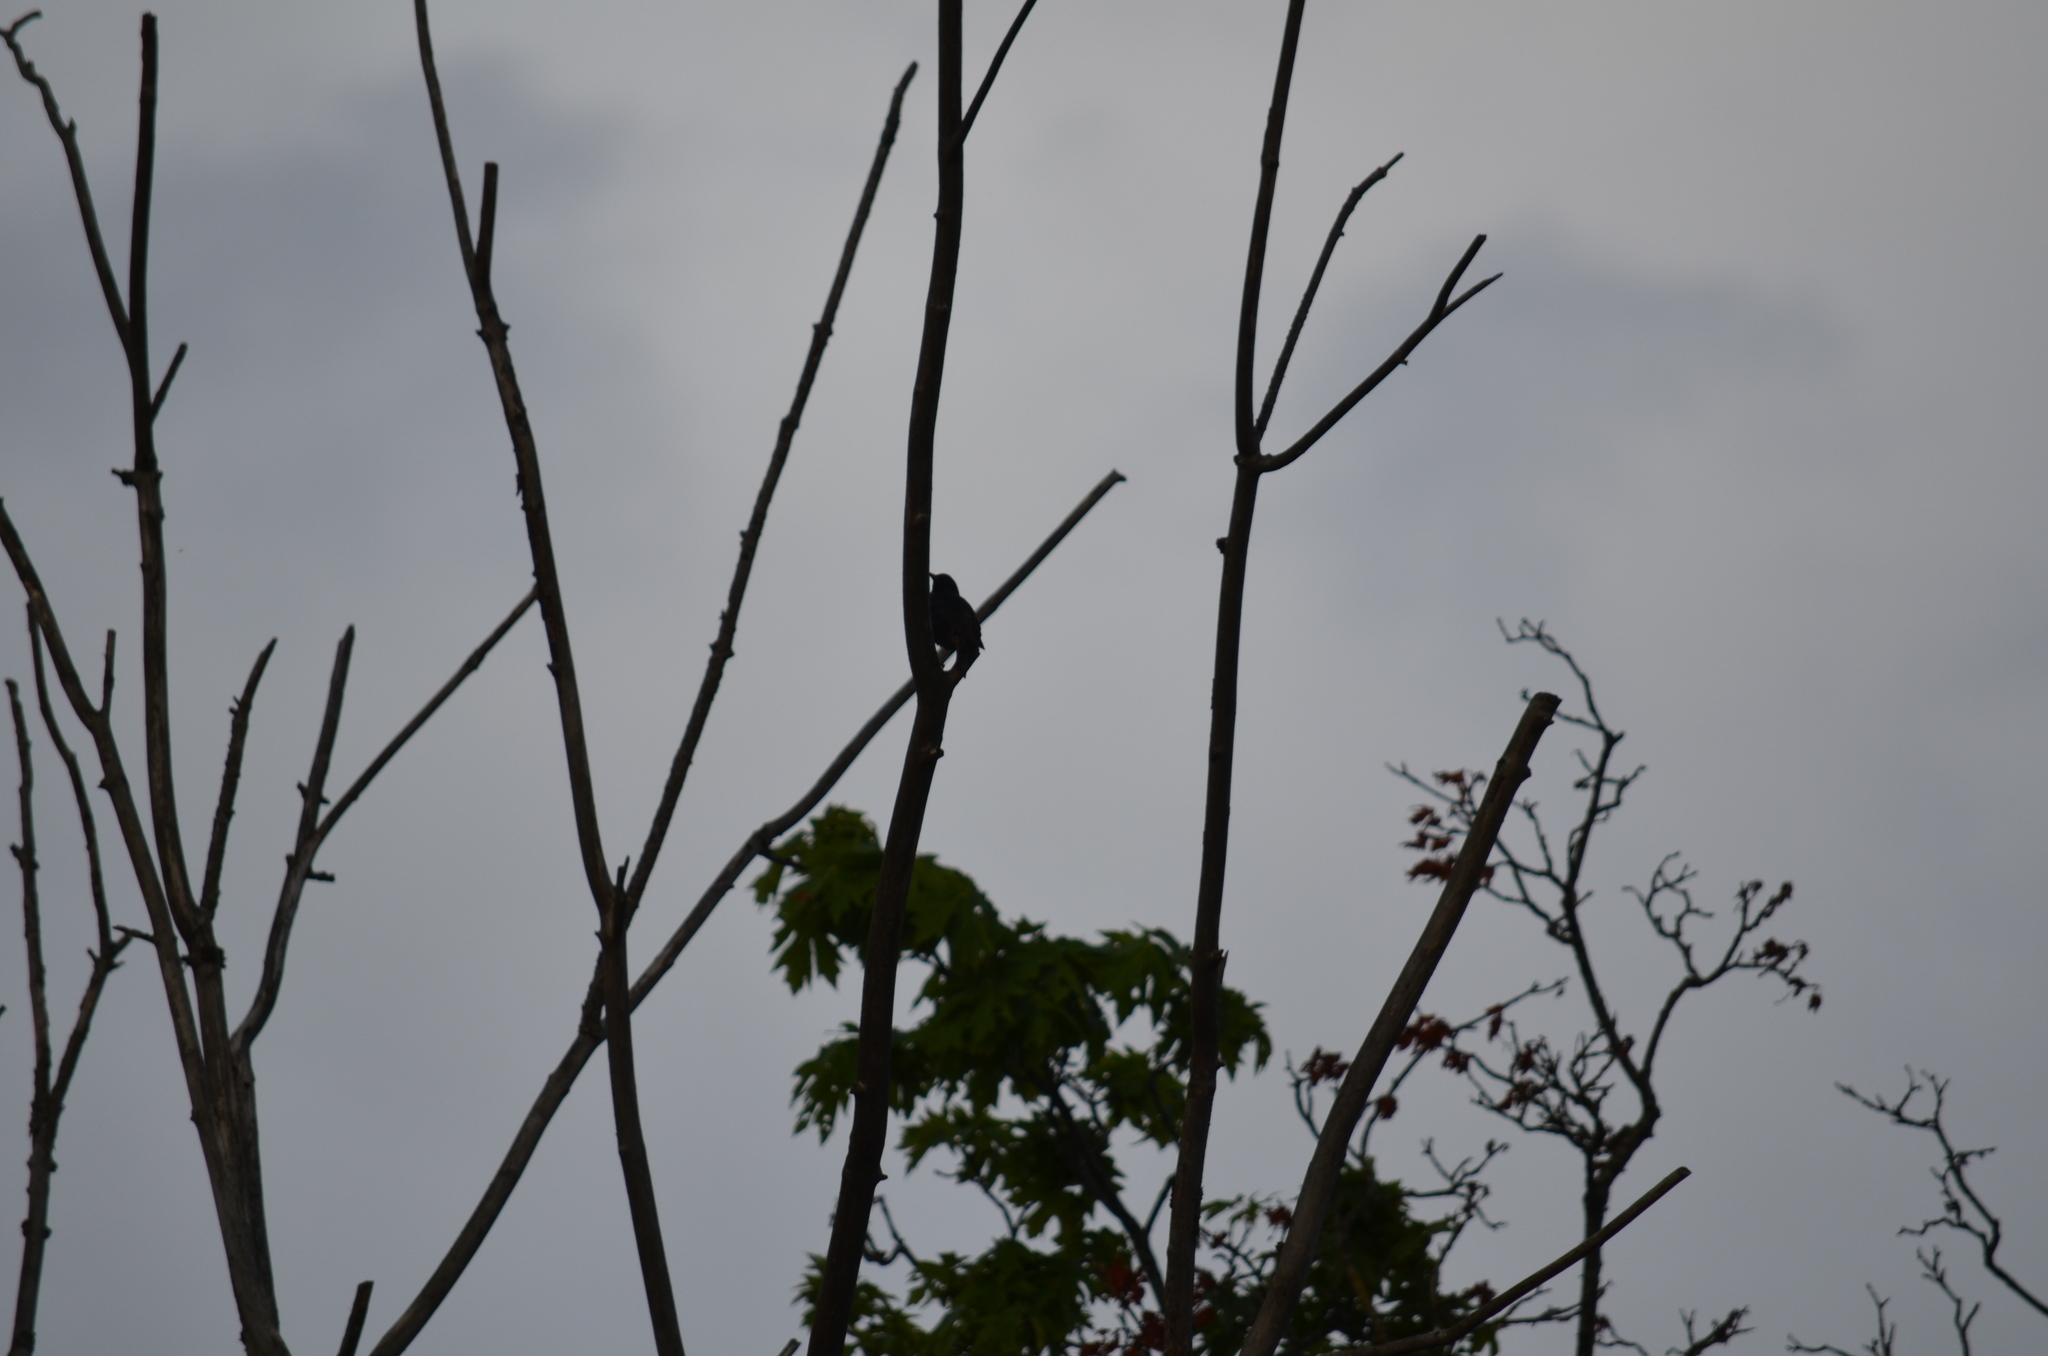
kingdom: Animalia
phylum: Chordata
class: Aves
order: Passeriformes
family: Sturnidae
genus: Sturnus
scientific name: Sturnus vulgaris
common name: Common starling
